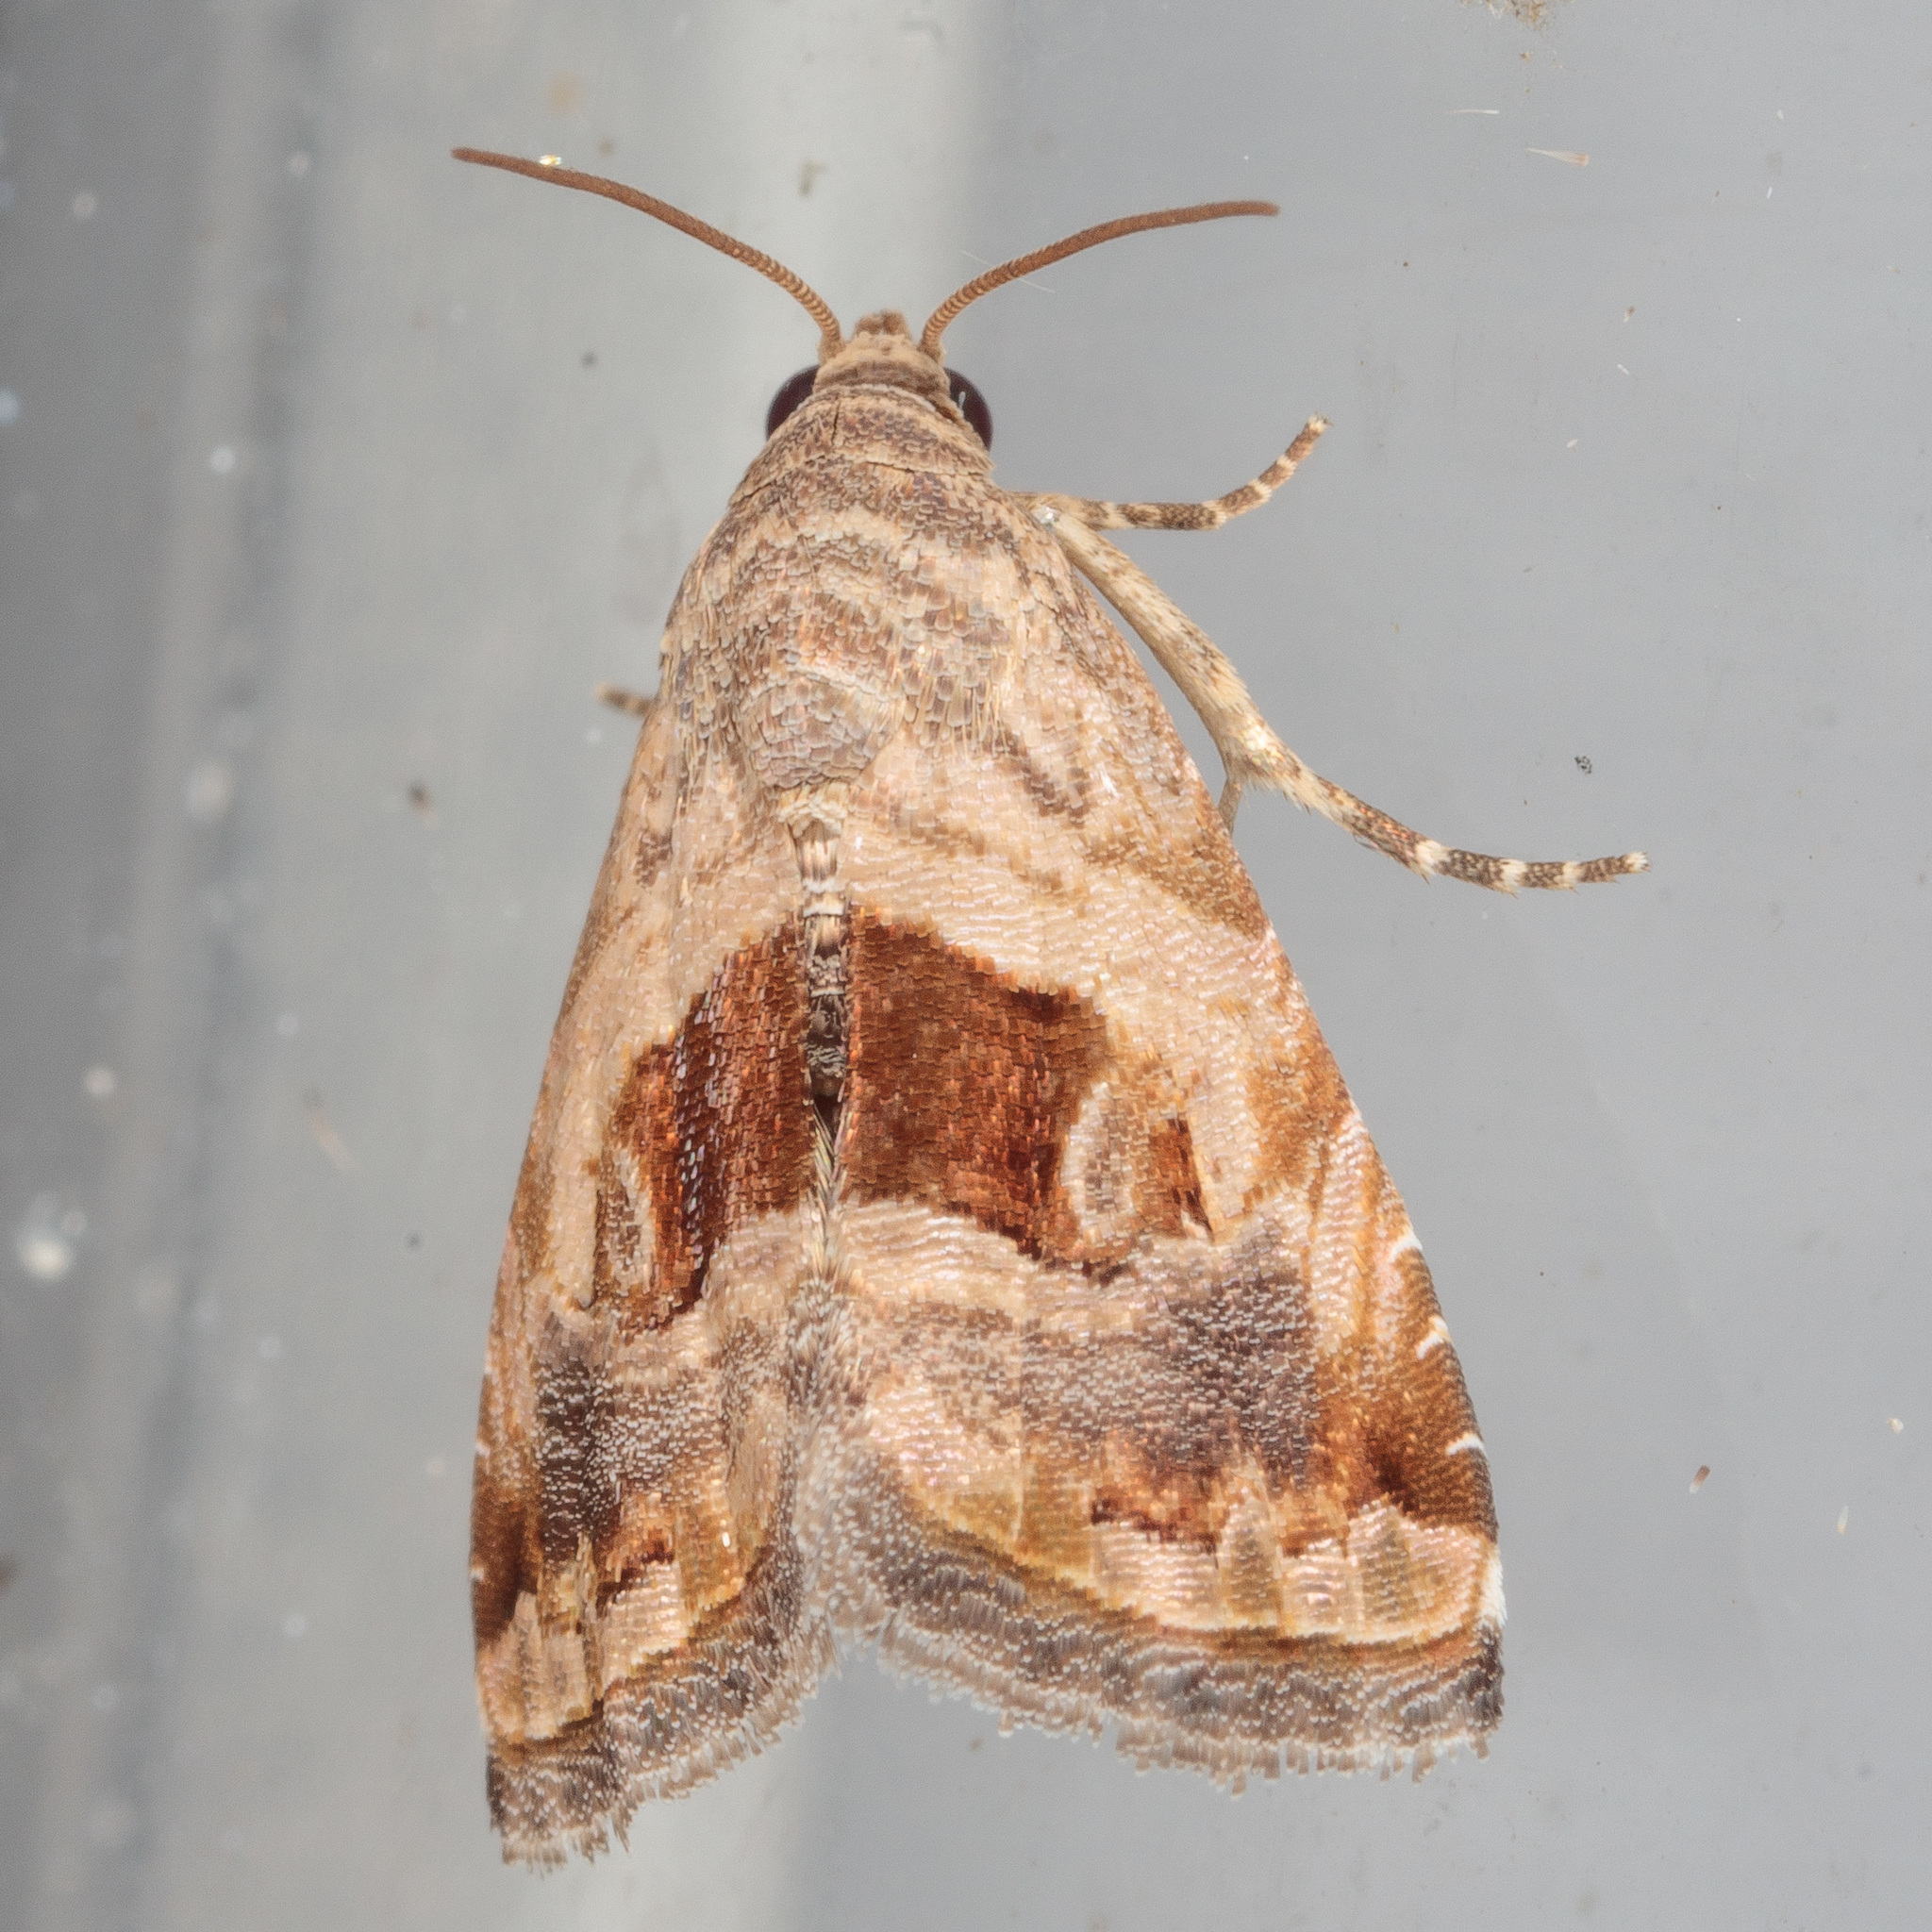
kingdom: Animalia
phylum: Arthropoda
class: Insecta
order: Lepidoptera
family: Noctuidae
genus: Tripudia
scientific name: Tripudia quadrifera
